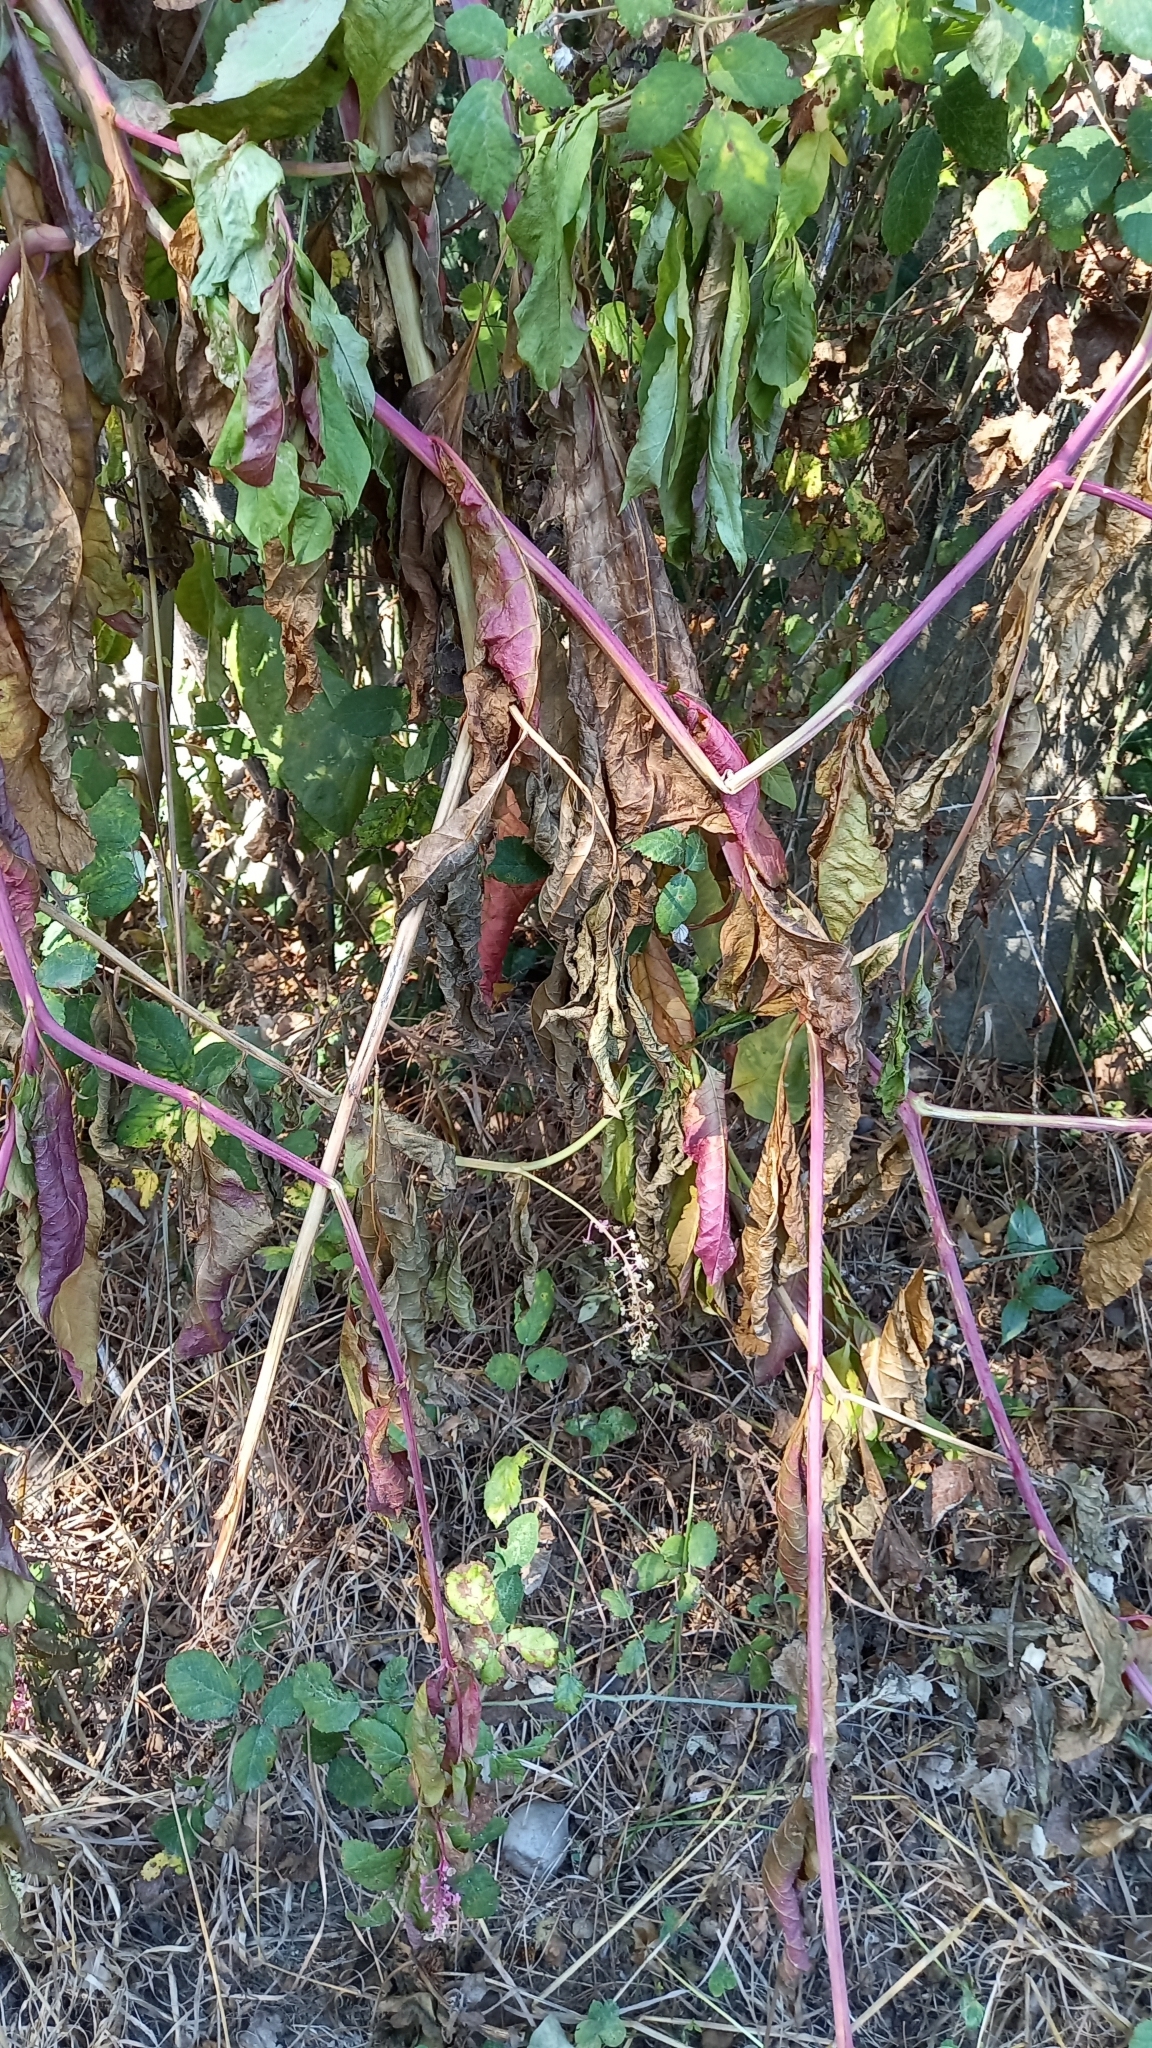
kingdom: Plantae
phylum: Tracheophyta
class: Magnoliopsida
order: Caryophyllales
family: Phytolaccaceae
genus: Phytolacca
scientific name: Phytolacca americana
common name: American pokeweed
